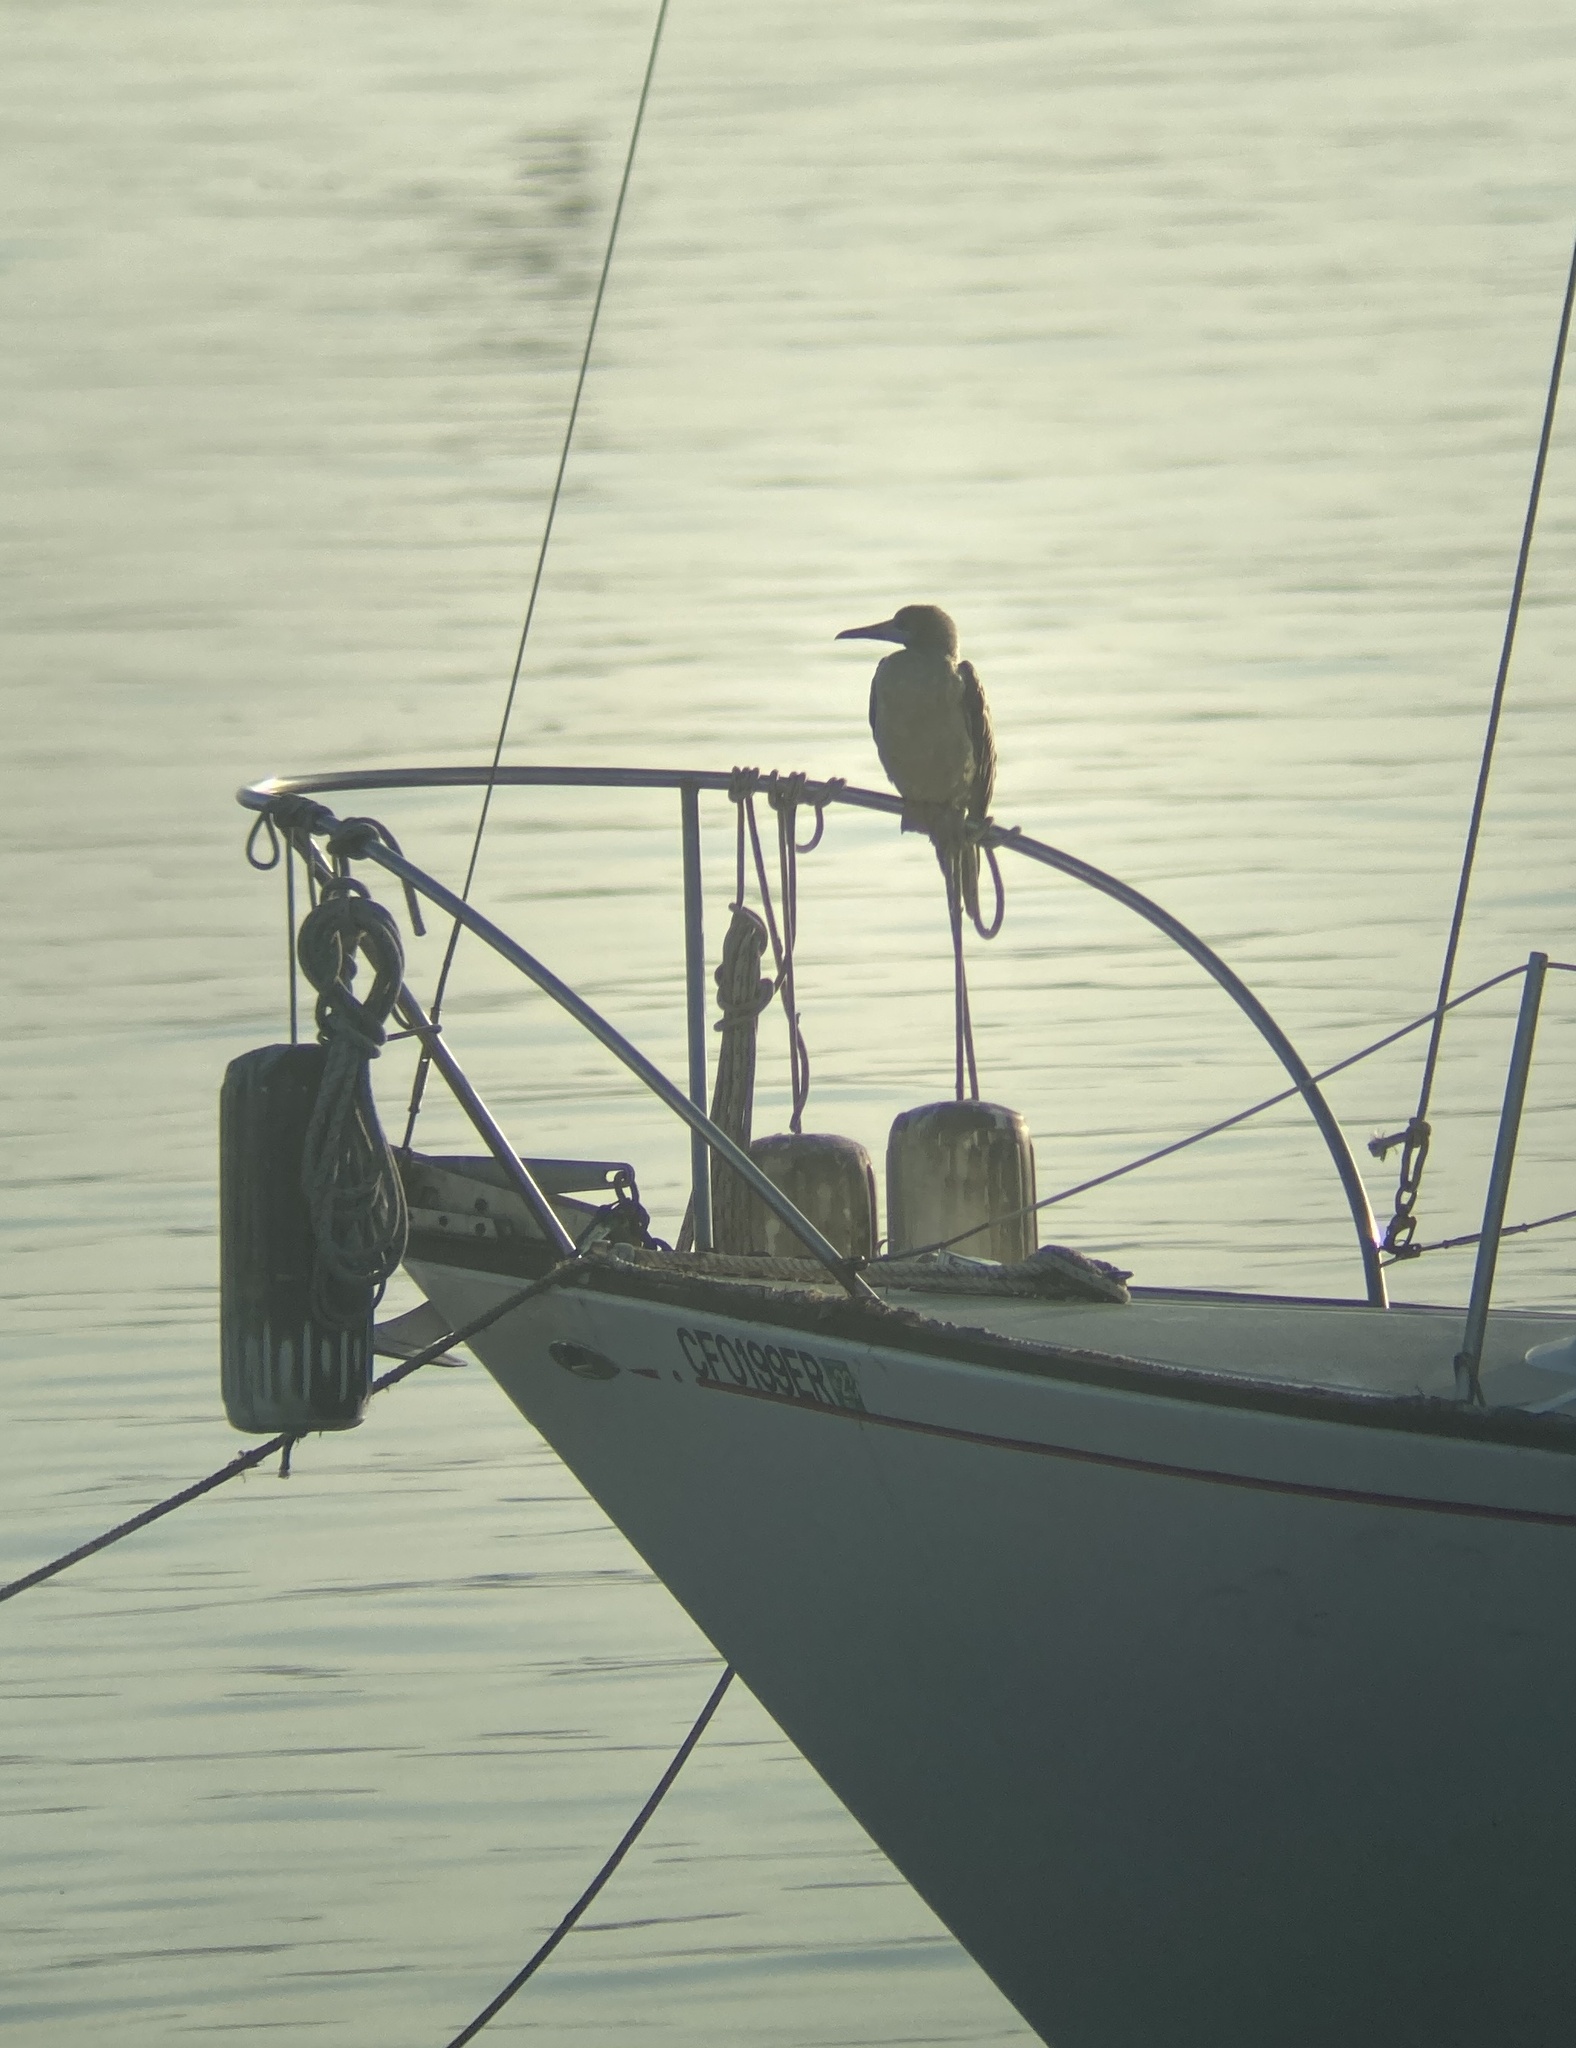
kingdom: Animalia
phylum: Chordata
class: Aves
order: Suliformes
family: Sulidae
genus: Sula
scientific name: Sula sula
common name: Red-footed booby
